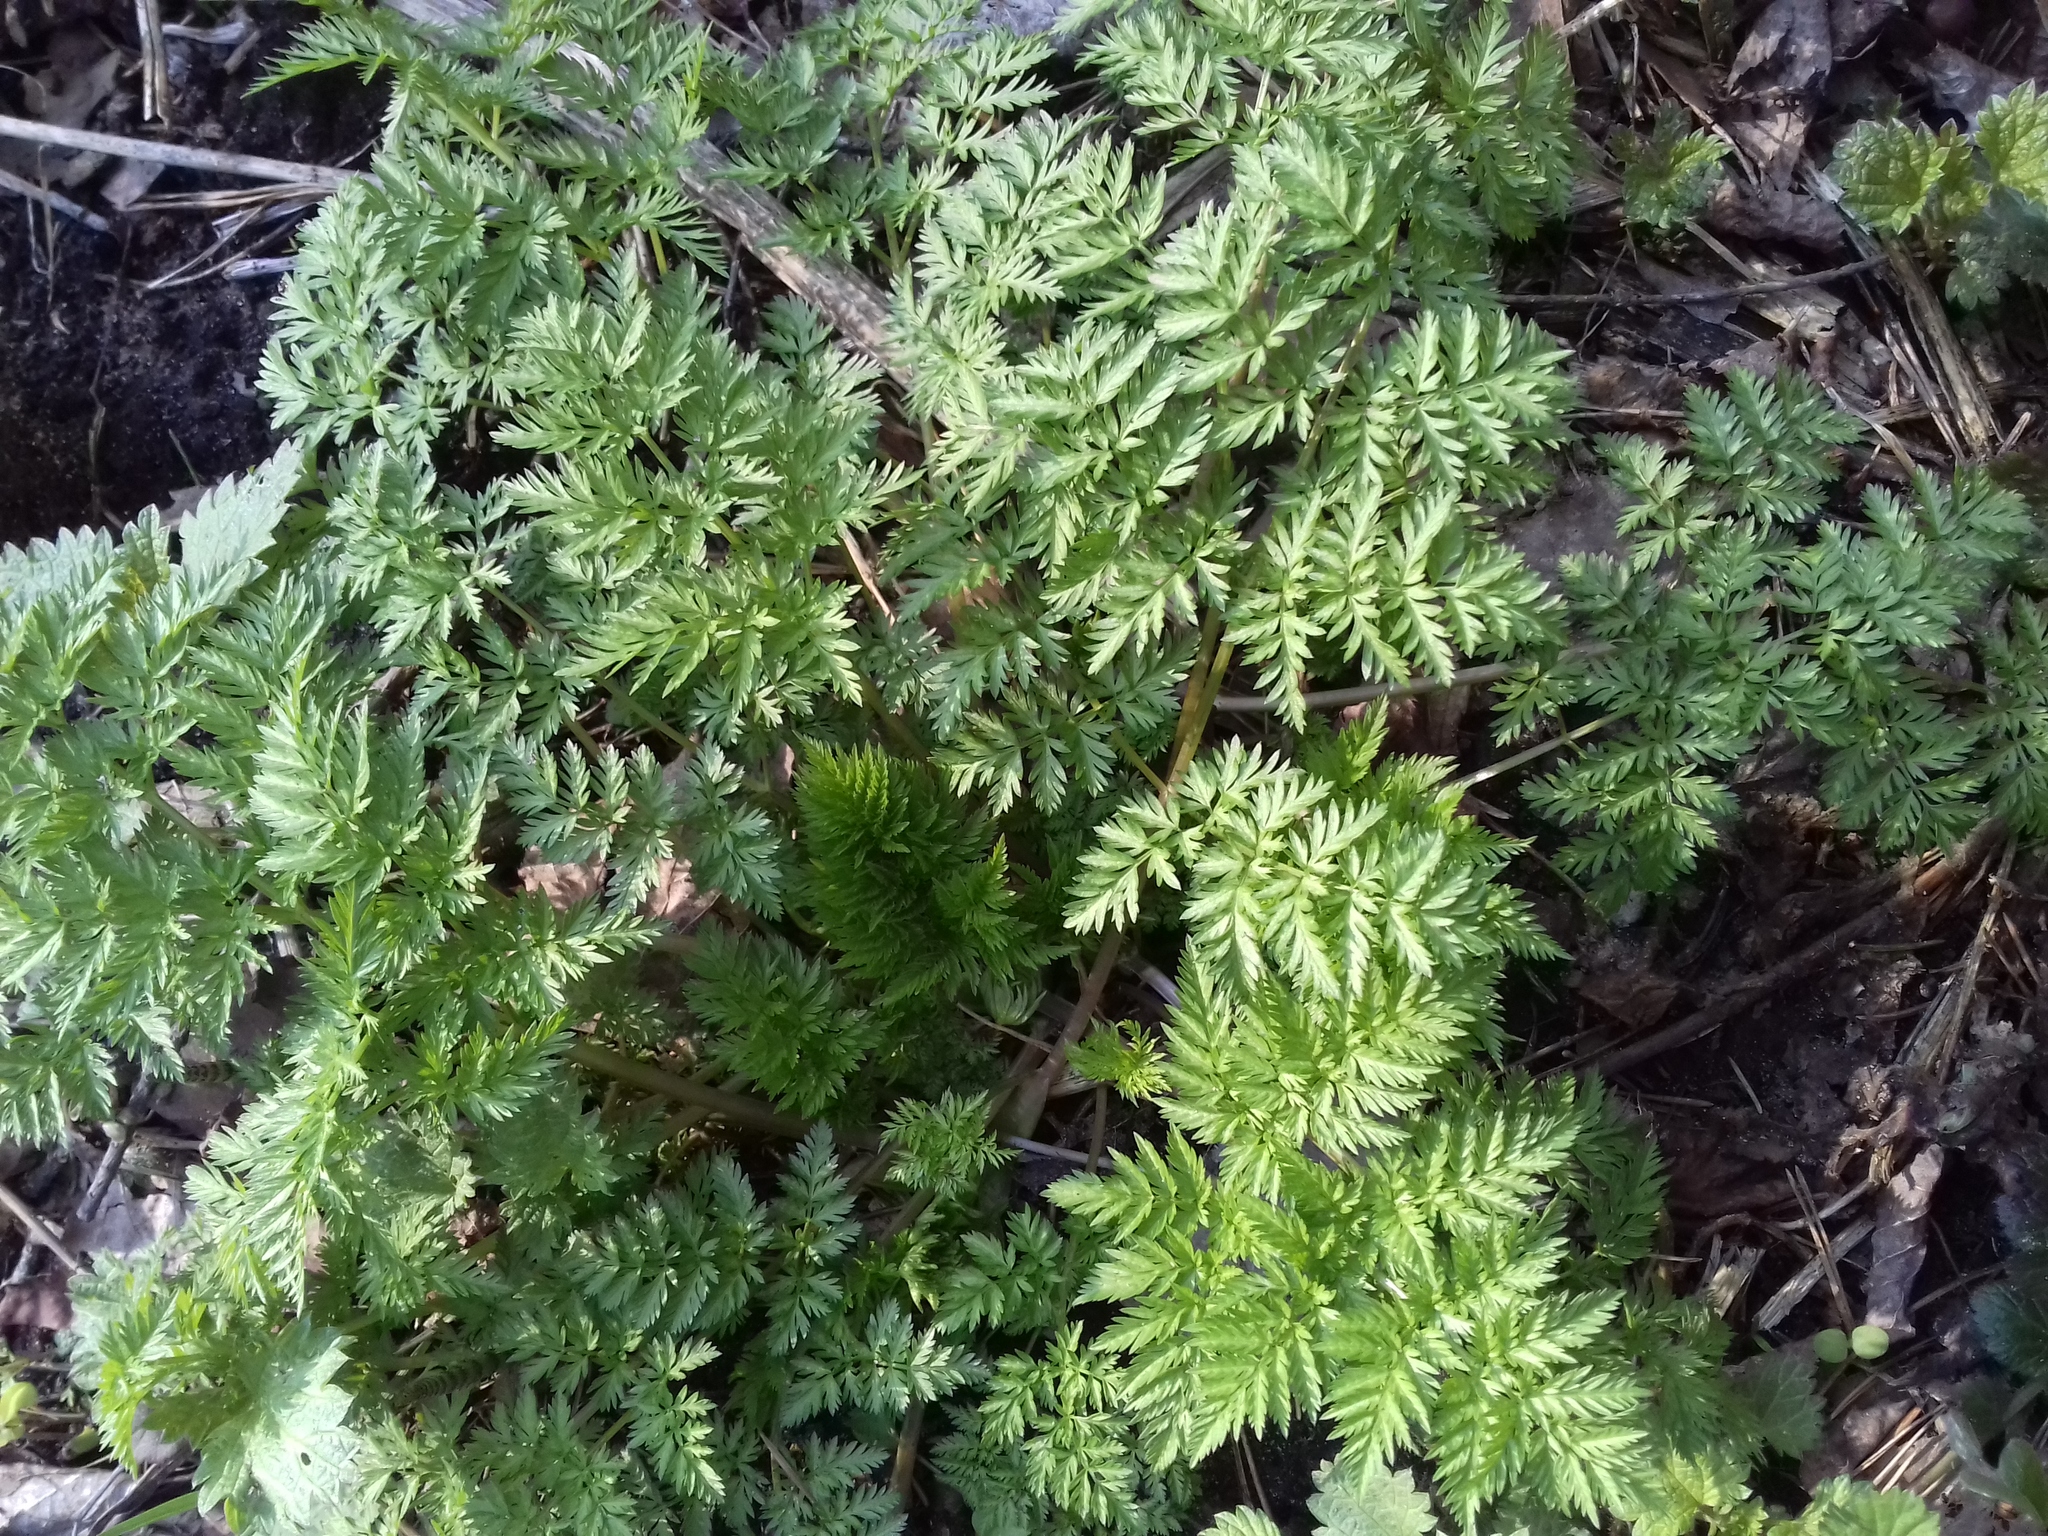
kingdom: Plantae
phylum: Tracheophyta
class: Magnoliopsida
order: Apiales
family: Apiaceae
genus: Anthriscus
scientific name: Anthriscus sylvestris
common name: Cow parsley
